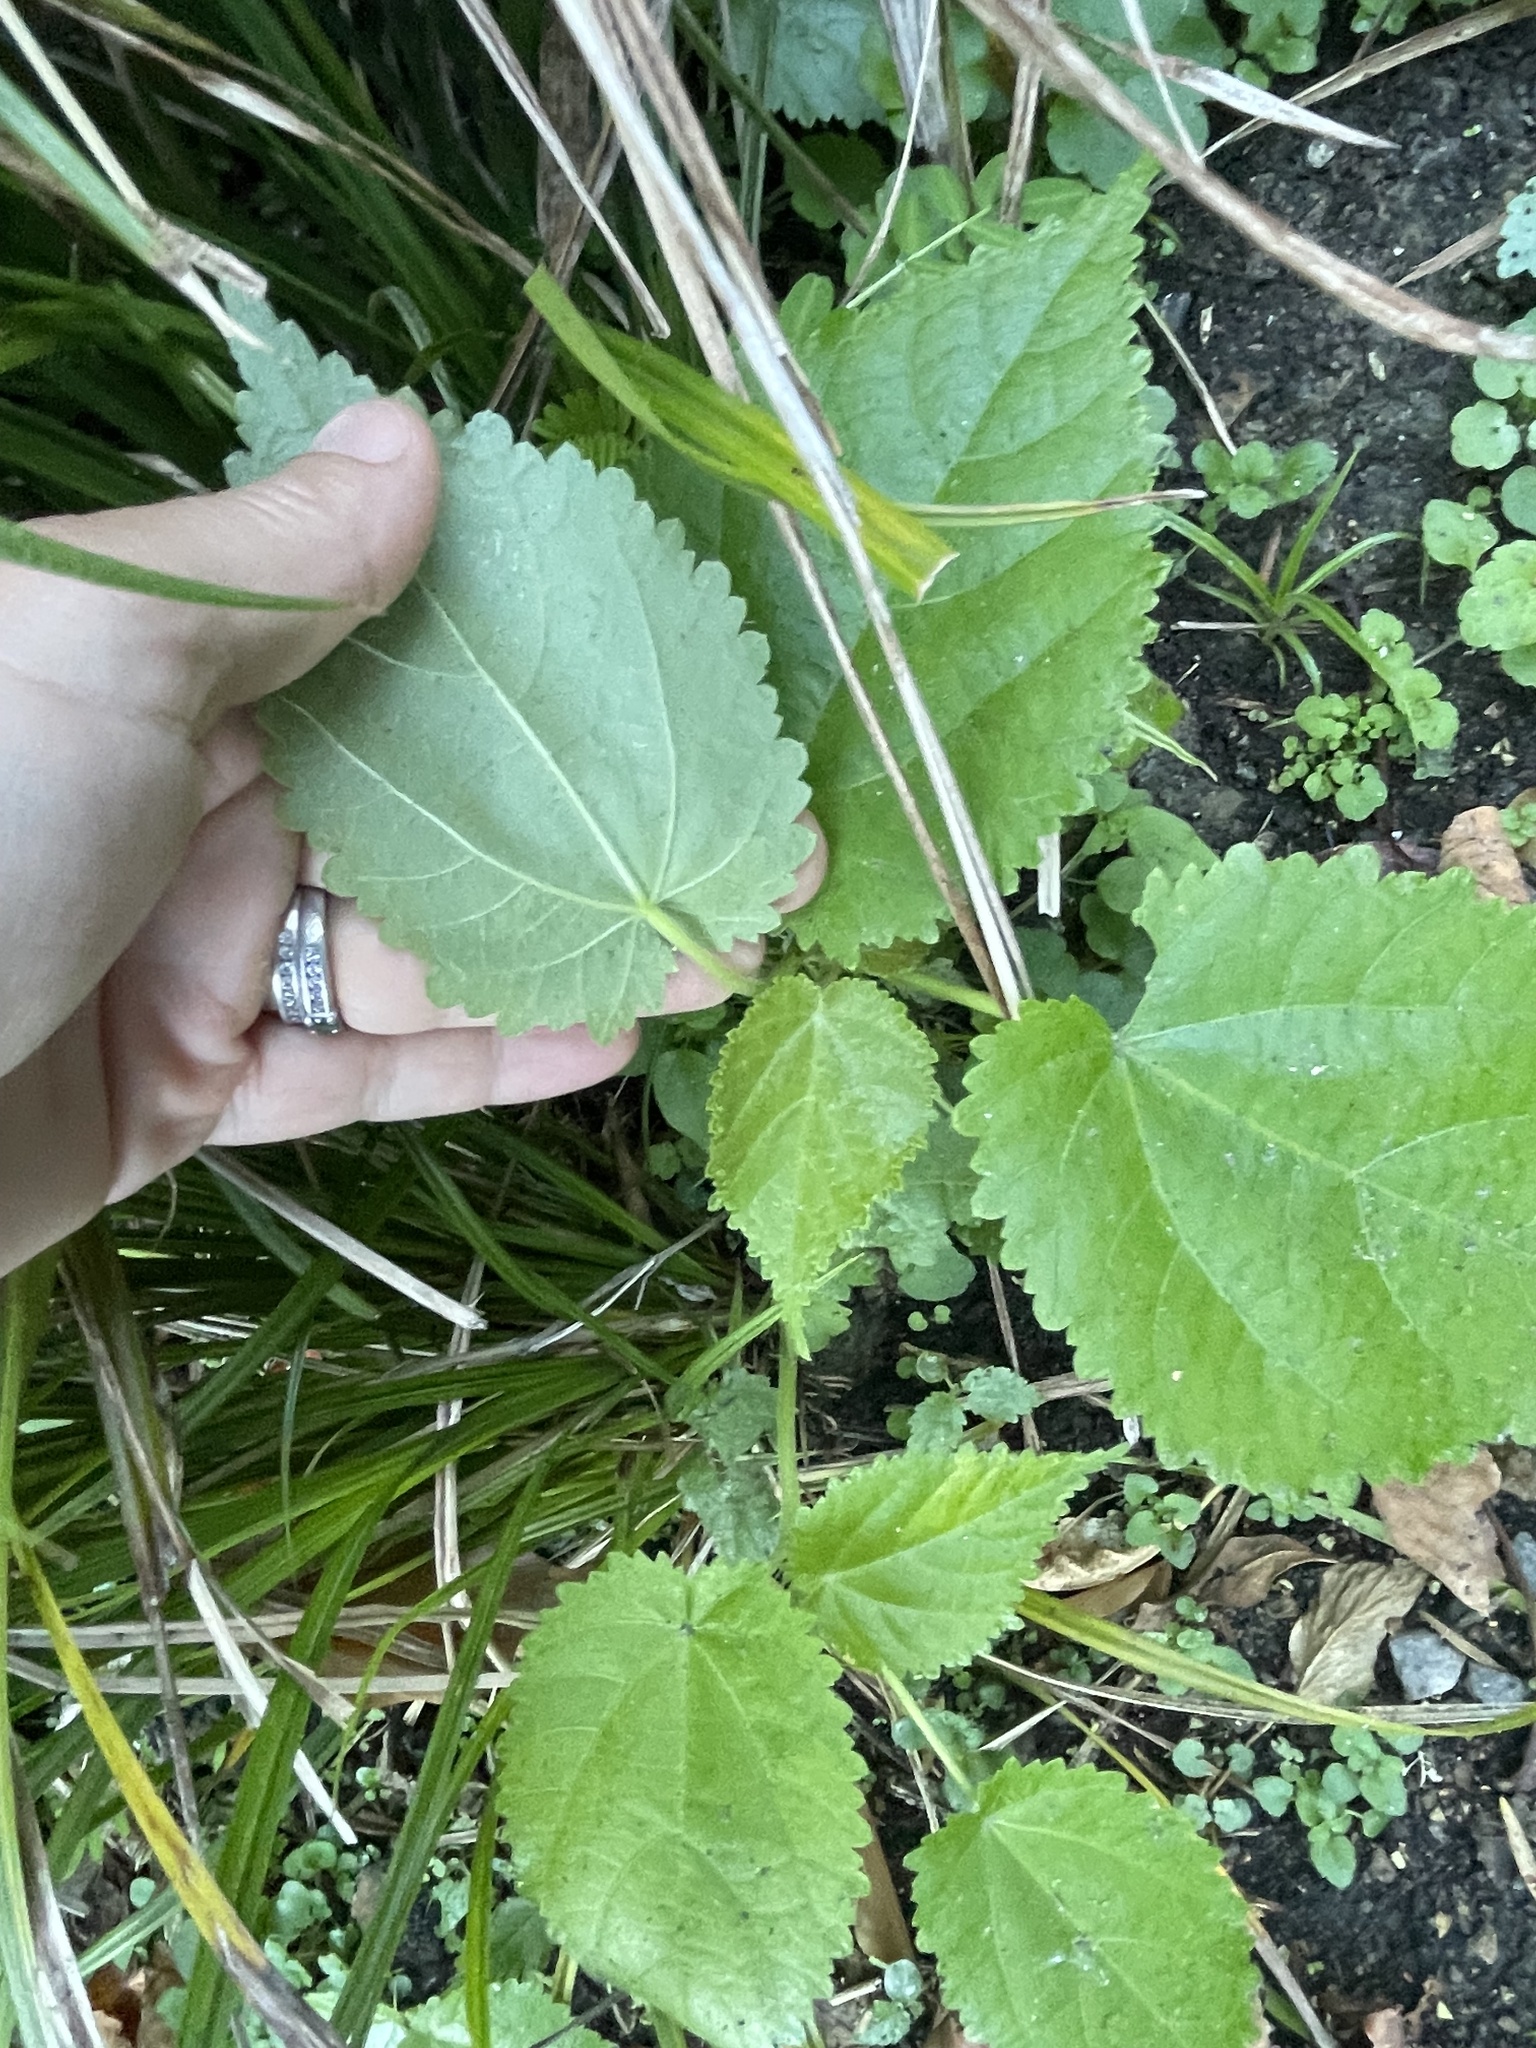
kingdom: Plantae
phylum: Tracheophyta
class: Magnoliopsida
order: Malvales
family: Malvaceae
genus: Entelea
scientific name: Entelea arborescens
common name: New zealand-mulberry
